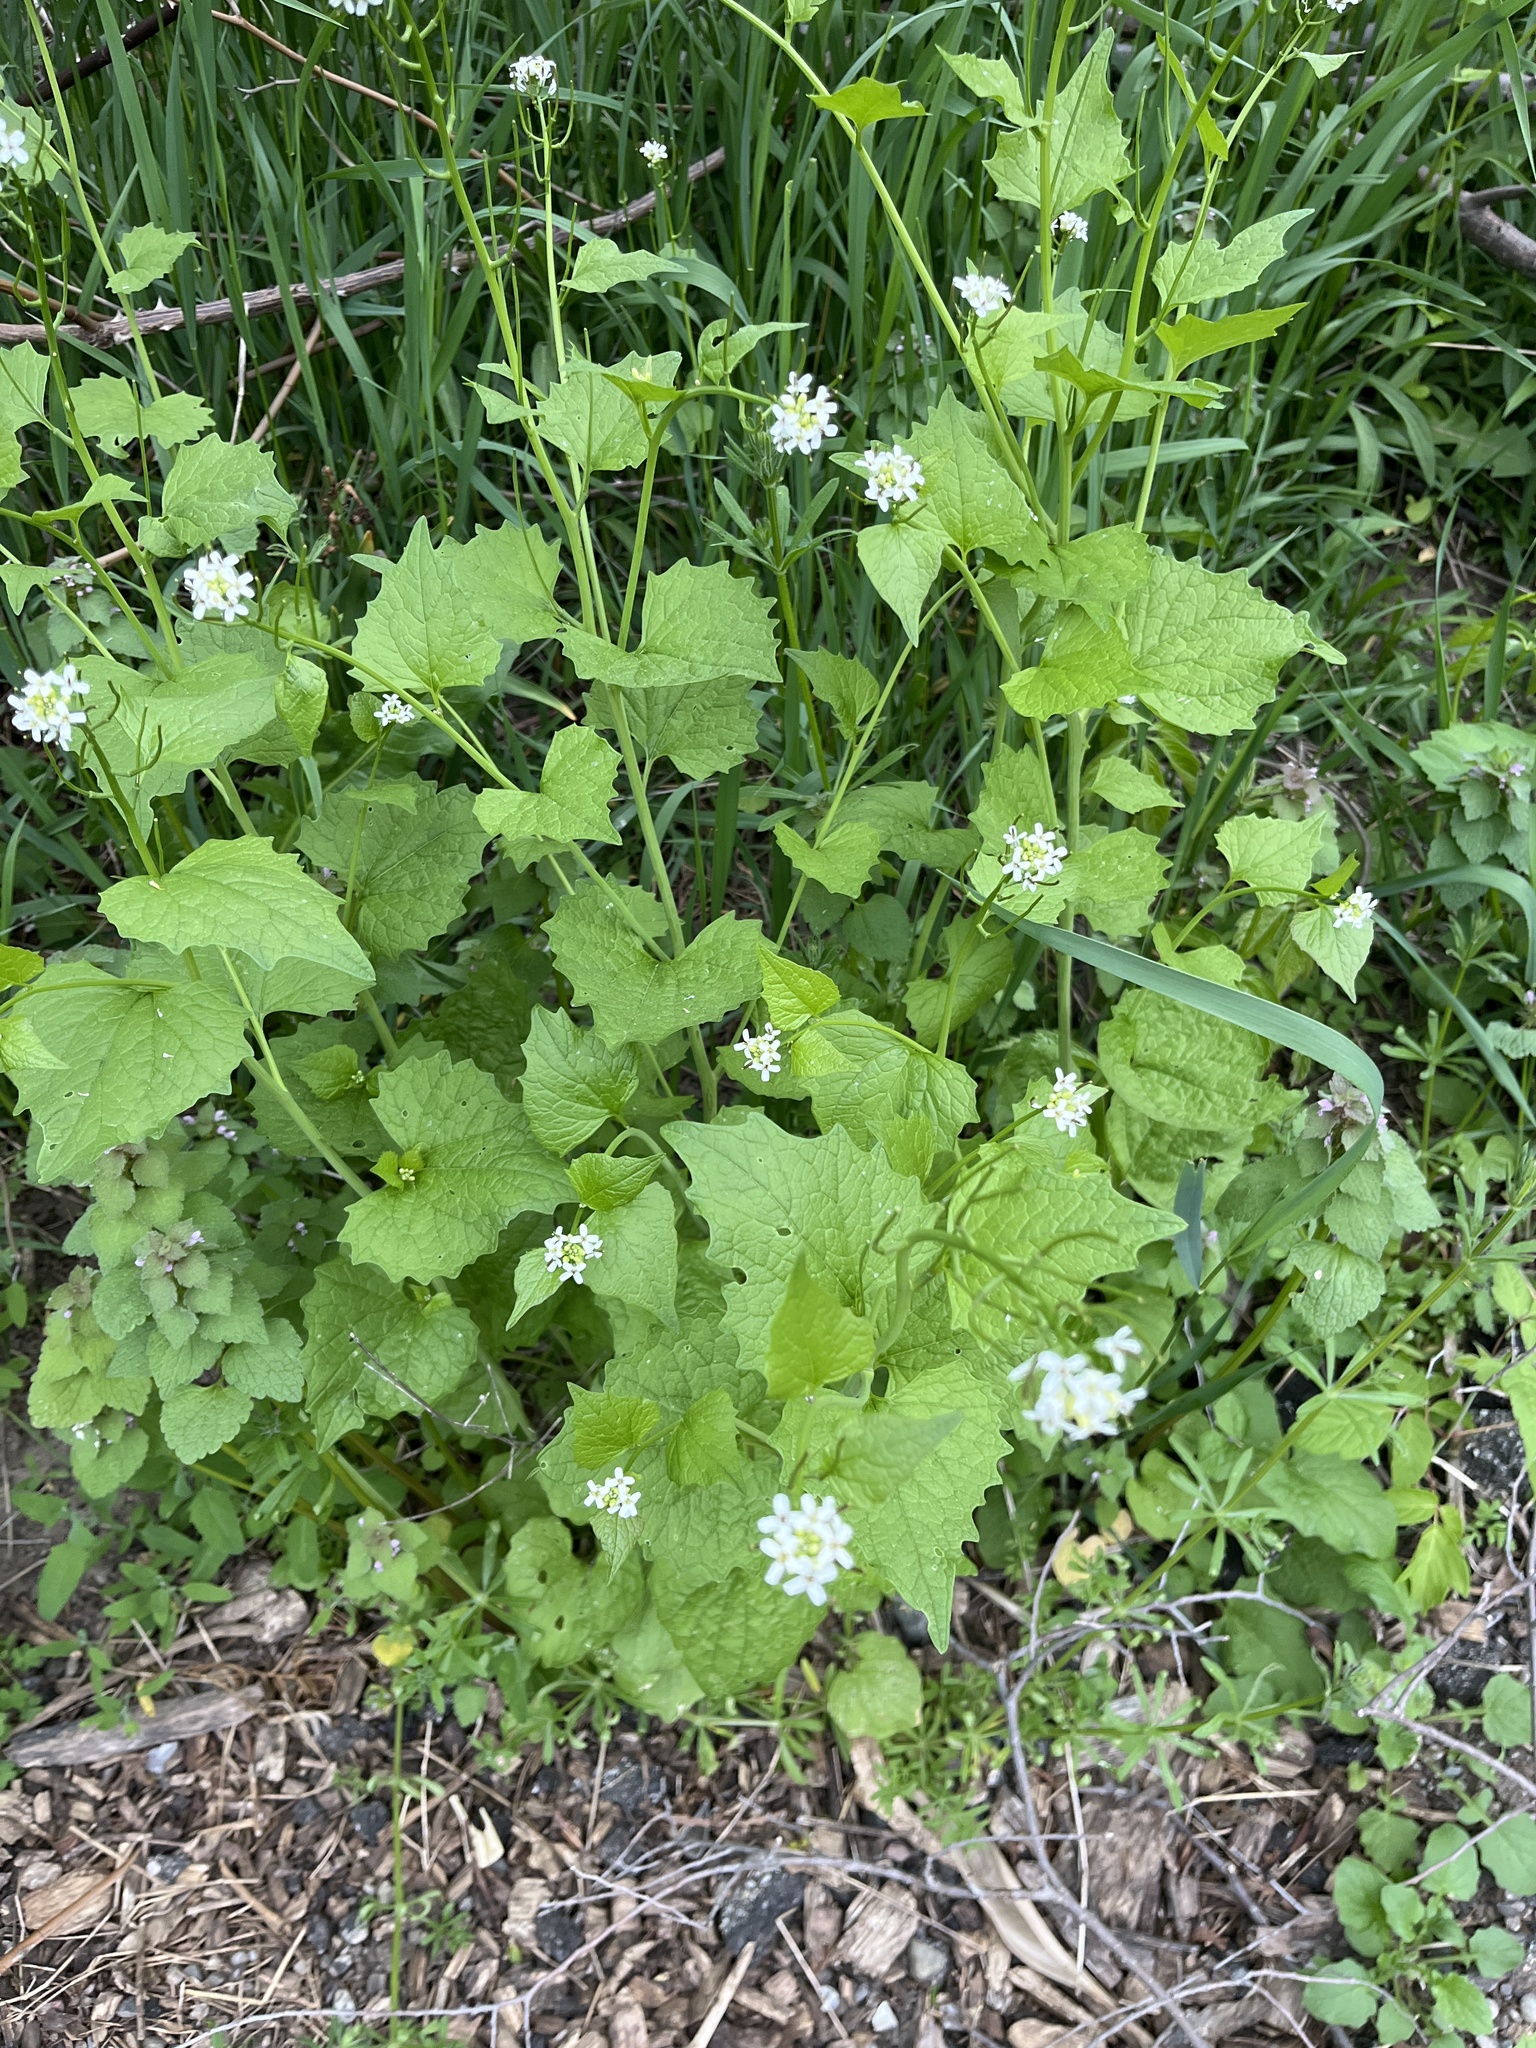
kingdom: Plantae
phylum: Tracheophyta
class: Magnoliopsida
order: Brassicales
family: Brassicaceae
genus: Alliaria
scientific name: Alliaria petiolata
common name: Garlic mustard
